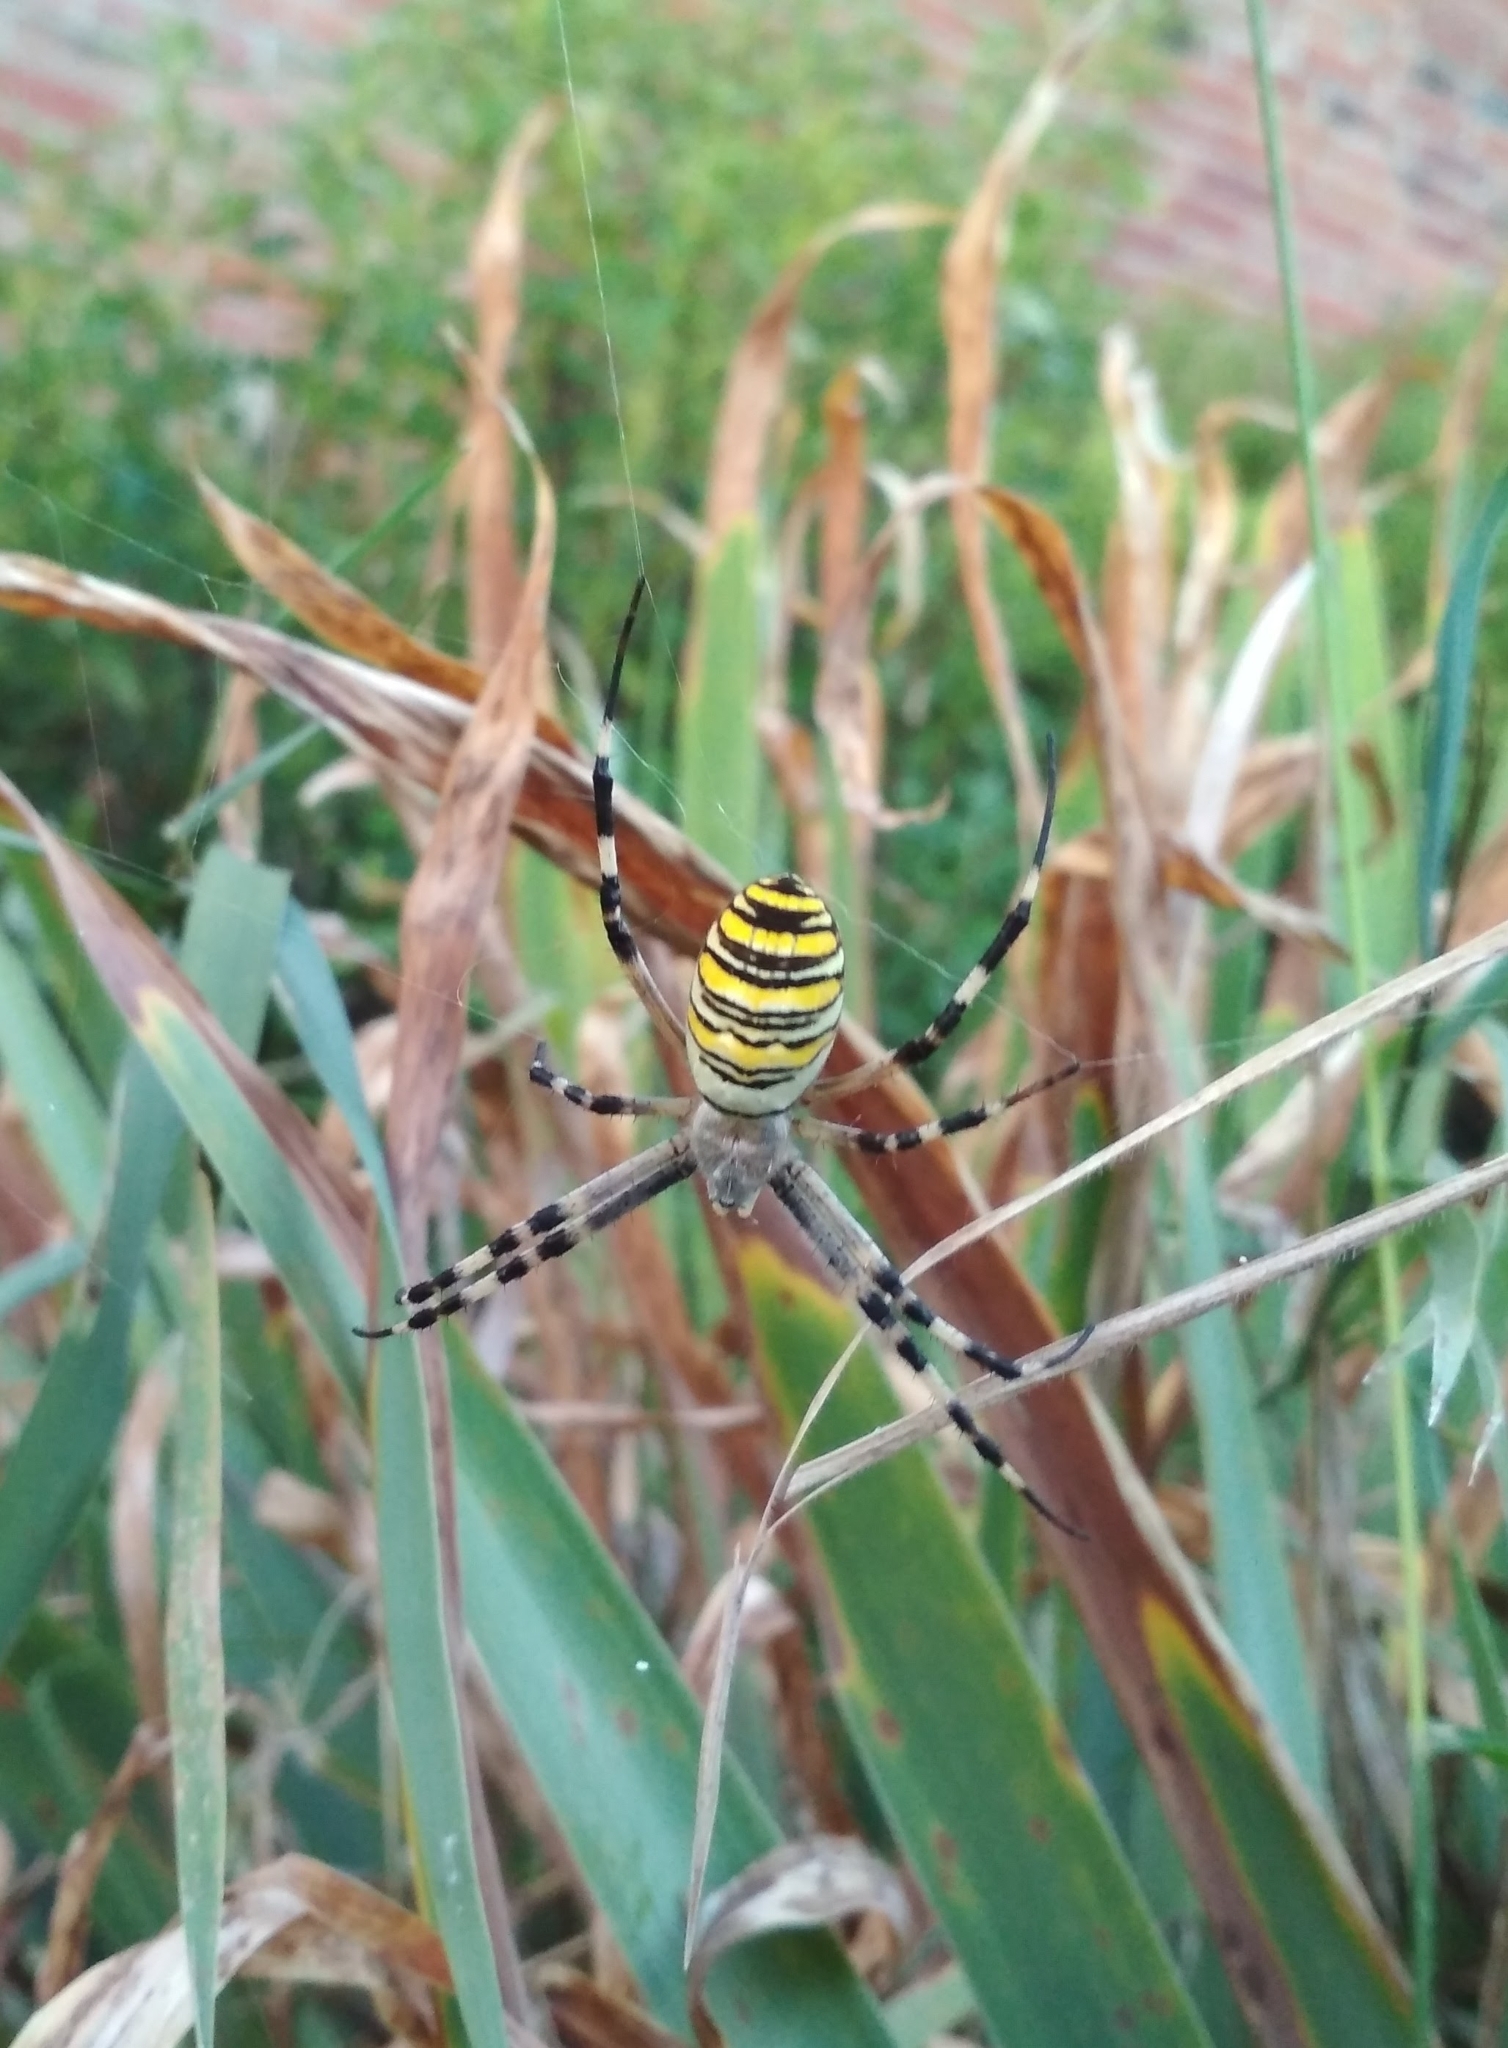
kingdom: Animalia
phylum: Arthropoda
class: Arachnida
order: Araneae
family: Araneidae
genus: Argiope
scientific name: Argiope bruennichi
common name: Wasp spider
